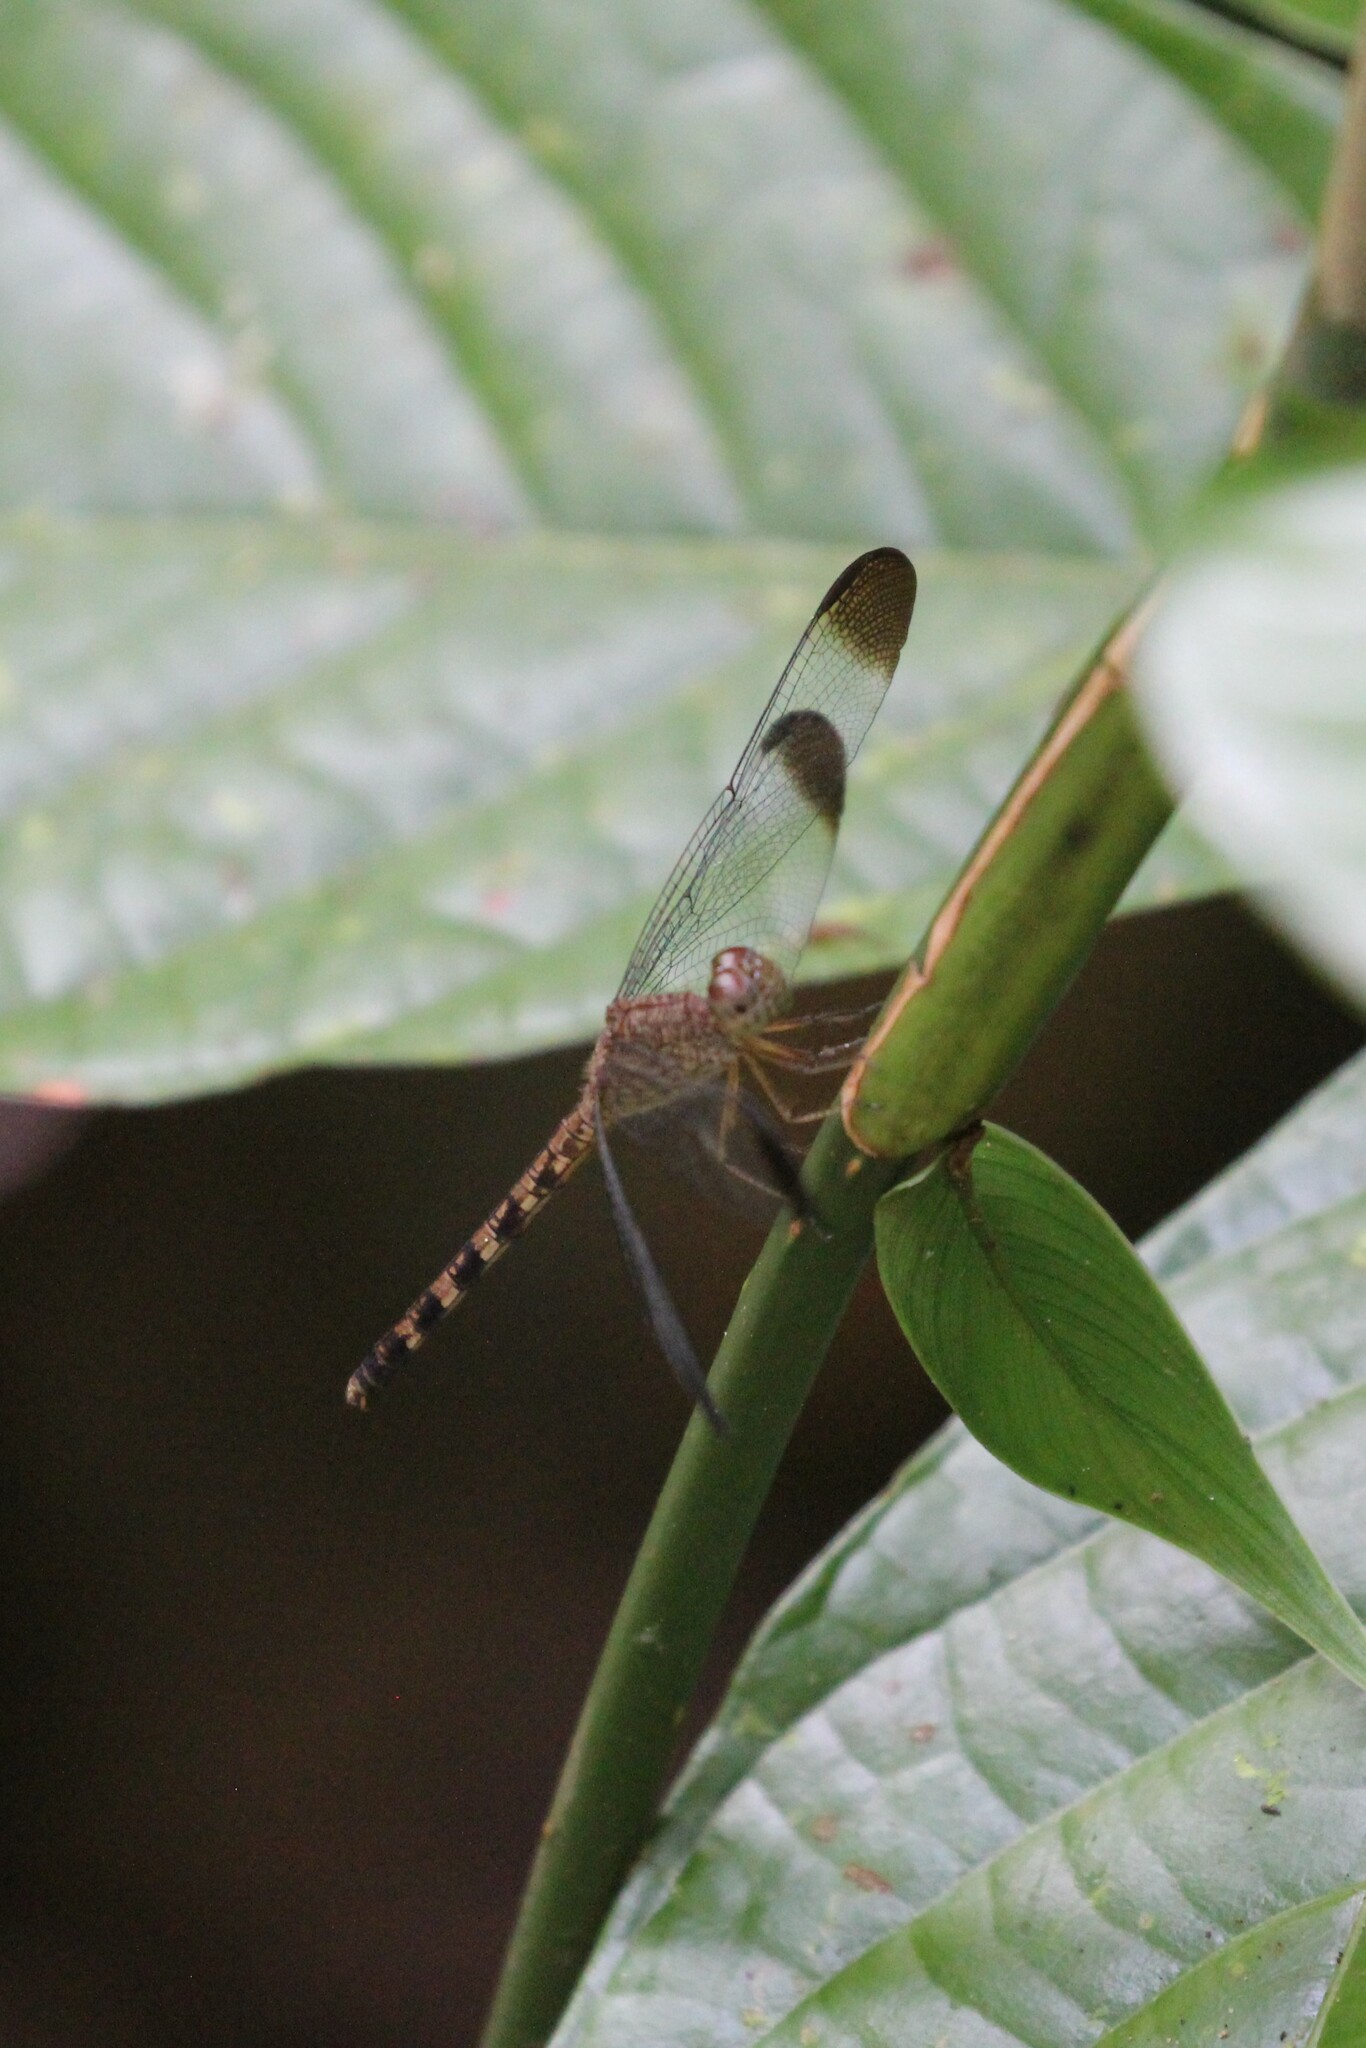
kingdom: Animalia
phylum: Arthropoda
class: Insecta
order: Odonata
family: Libellulidae
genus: Uracis
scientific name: Uracis imbuta
